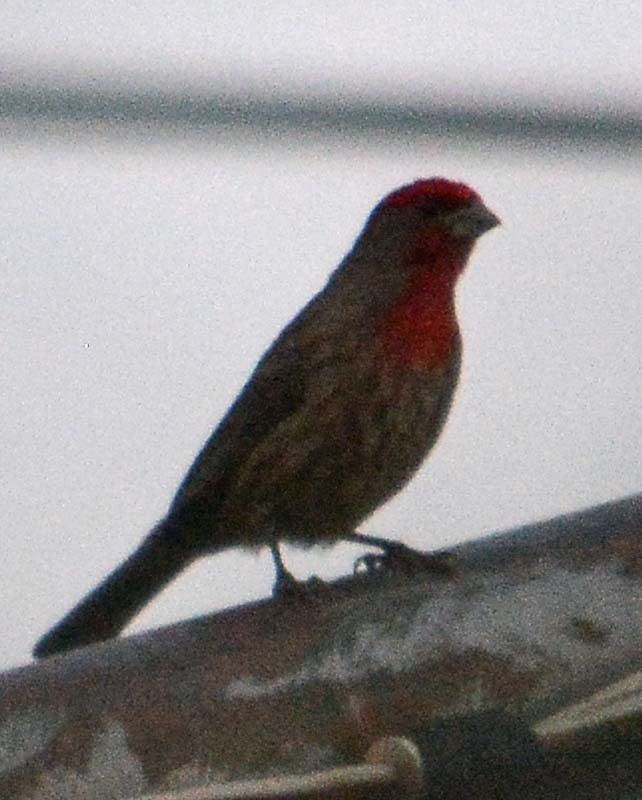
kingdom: Animalia
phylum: Chordata
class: Aves
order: Passeriformes
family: Fringillidae
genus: Haemorhous
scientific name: Haemorhous mexicanus
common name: House finch
